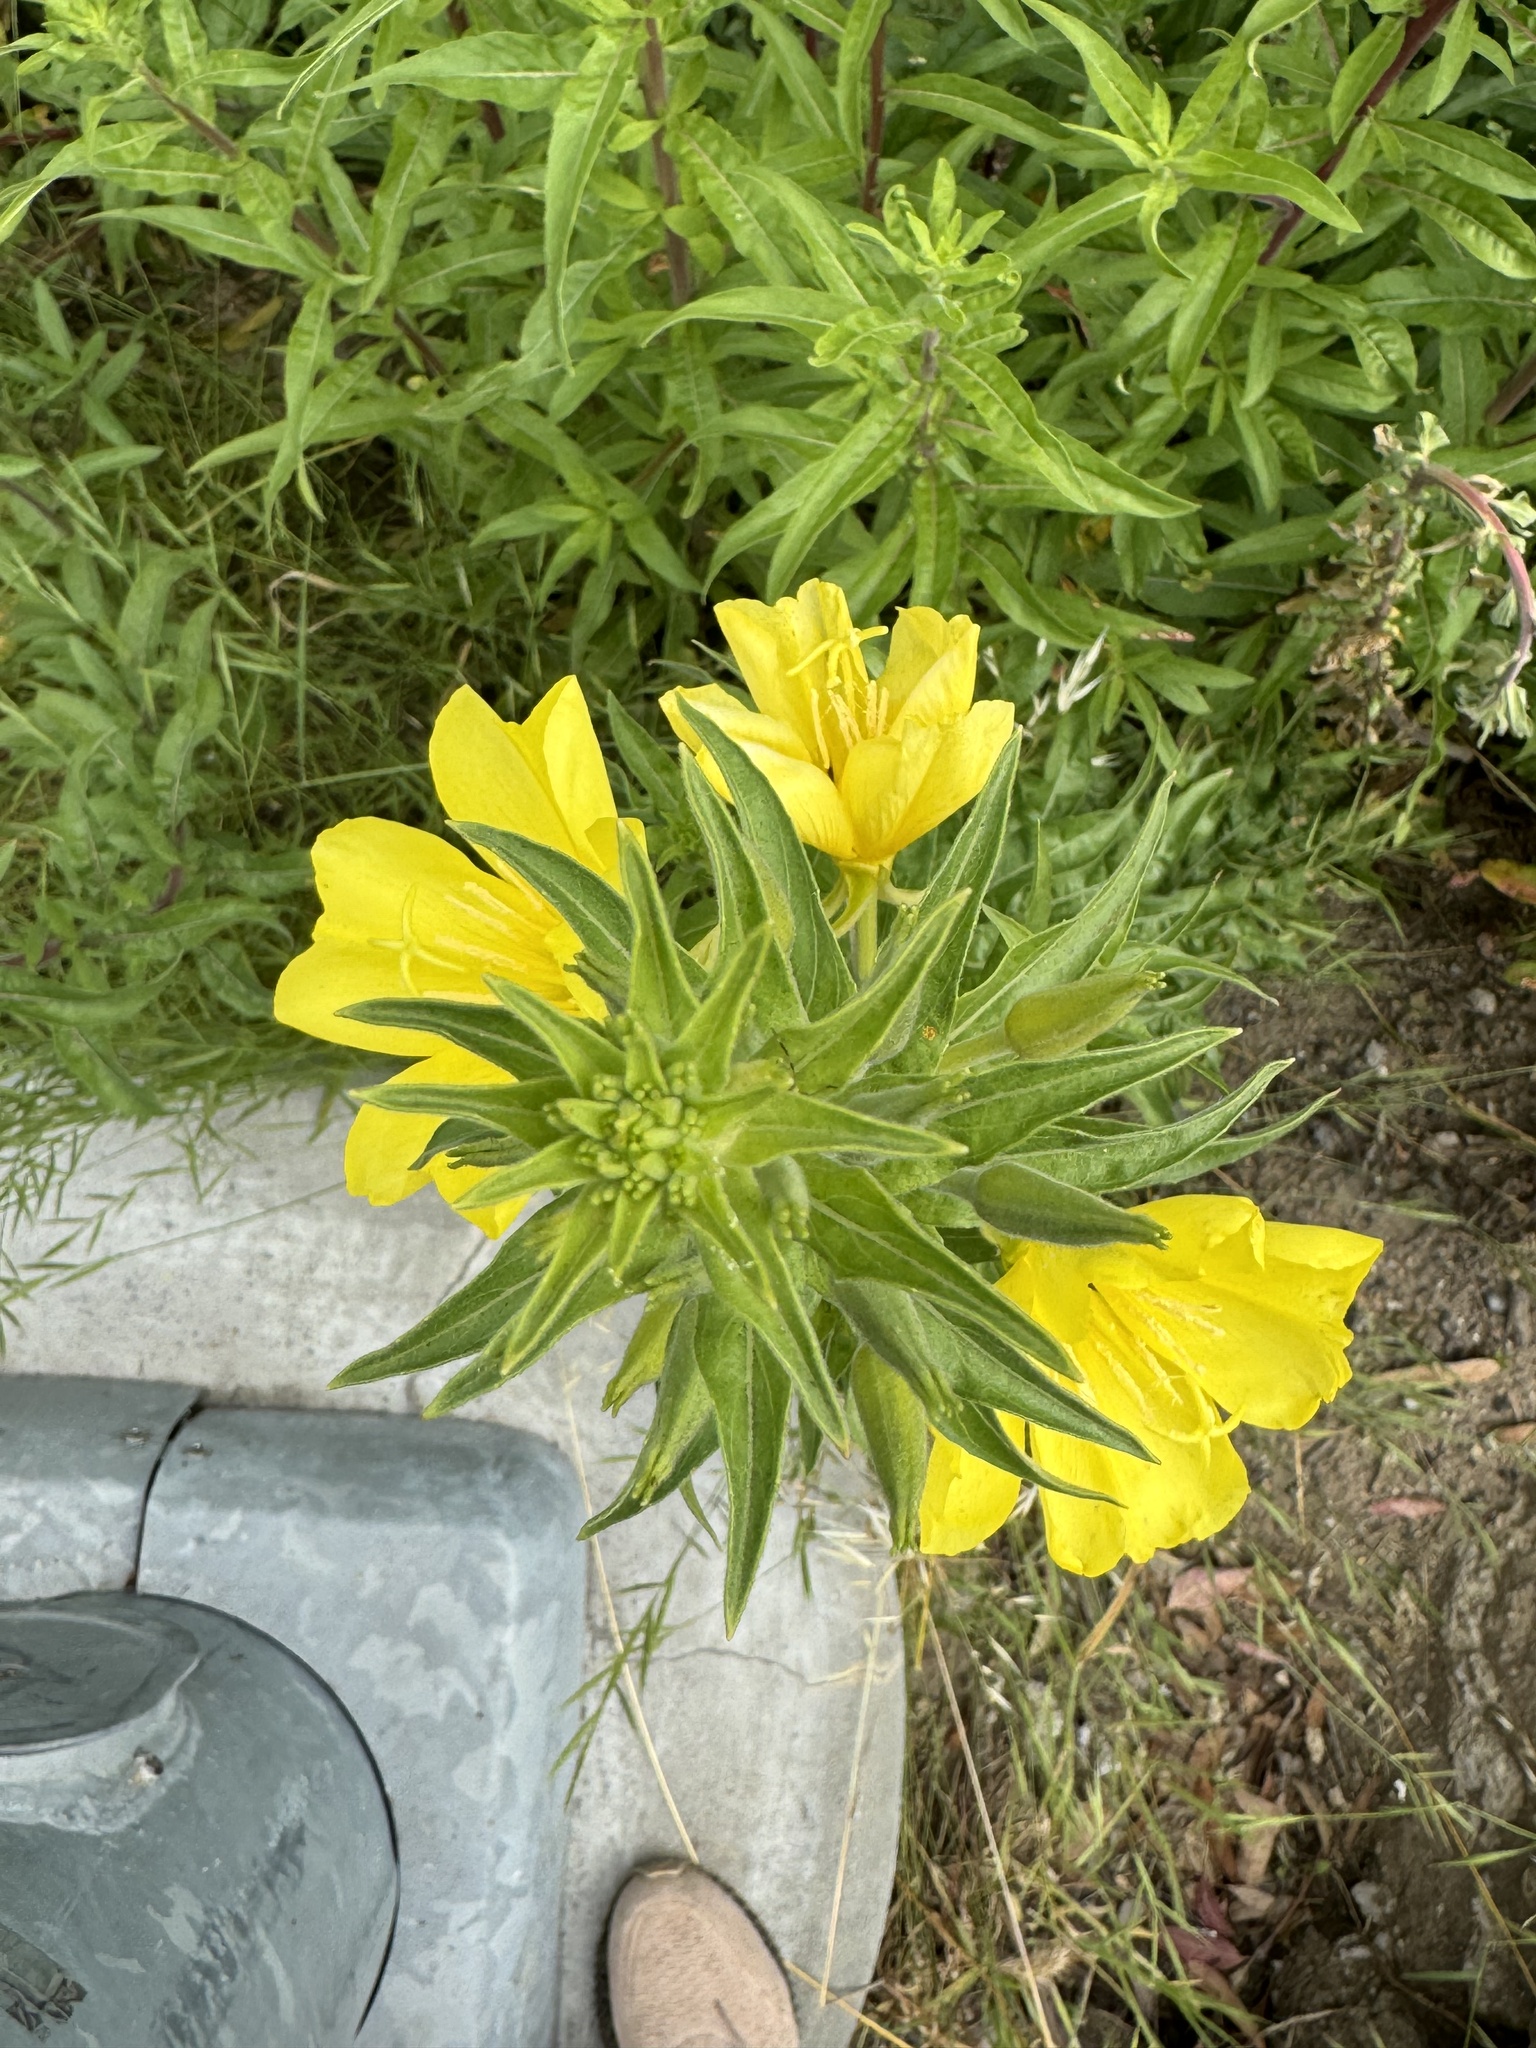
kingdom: Plantae
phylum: Tracheophyta
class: Magnoliopsida
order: Myrtales
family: Onagraceae
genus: Oenothera
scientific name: Oenothera elata
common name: Hooker's evening-primrose
